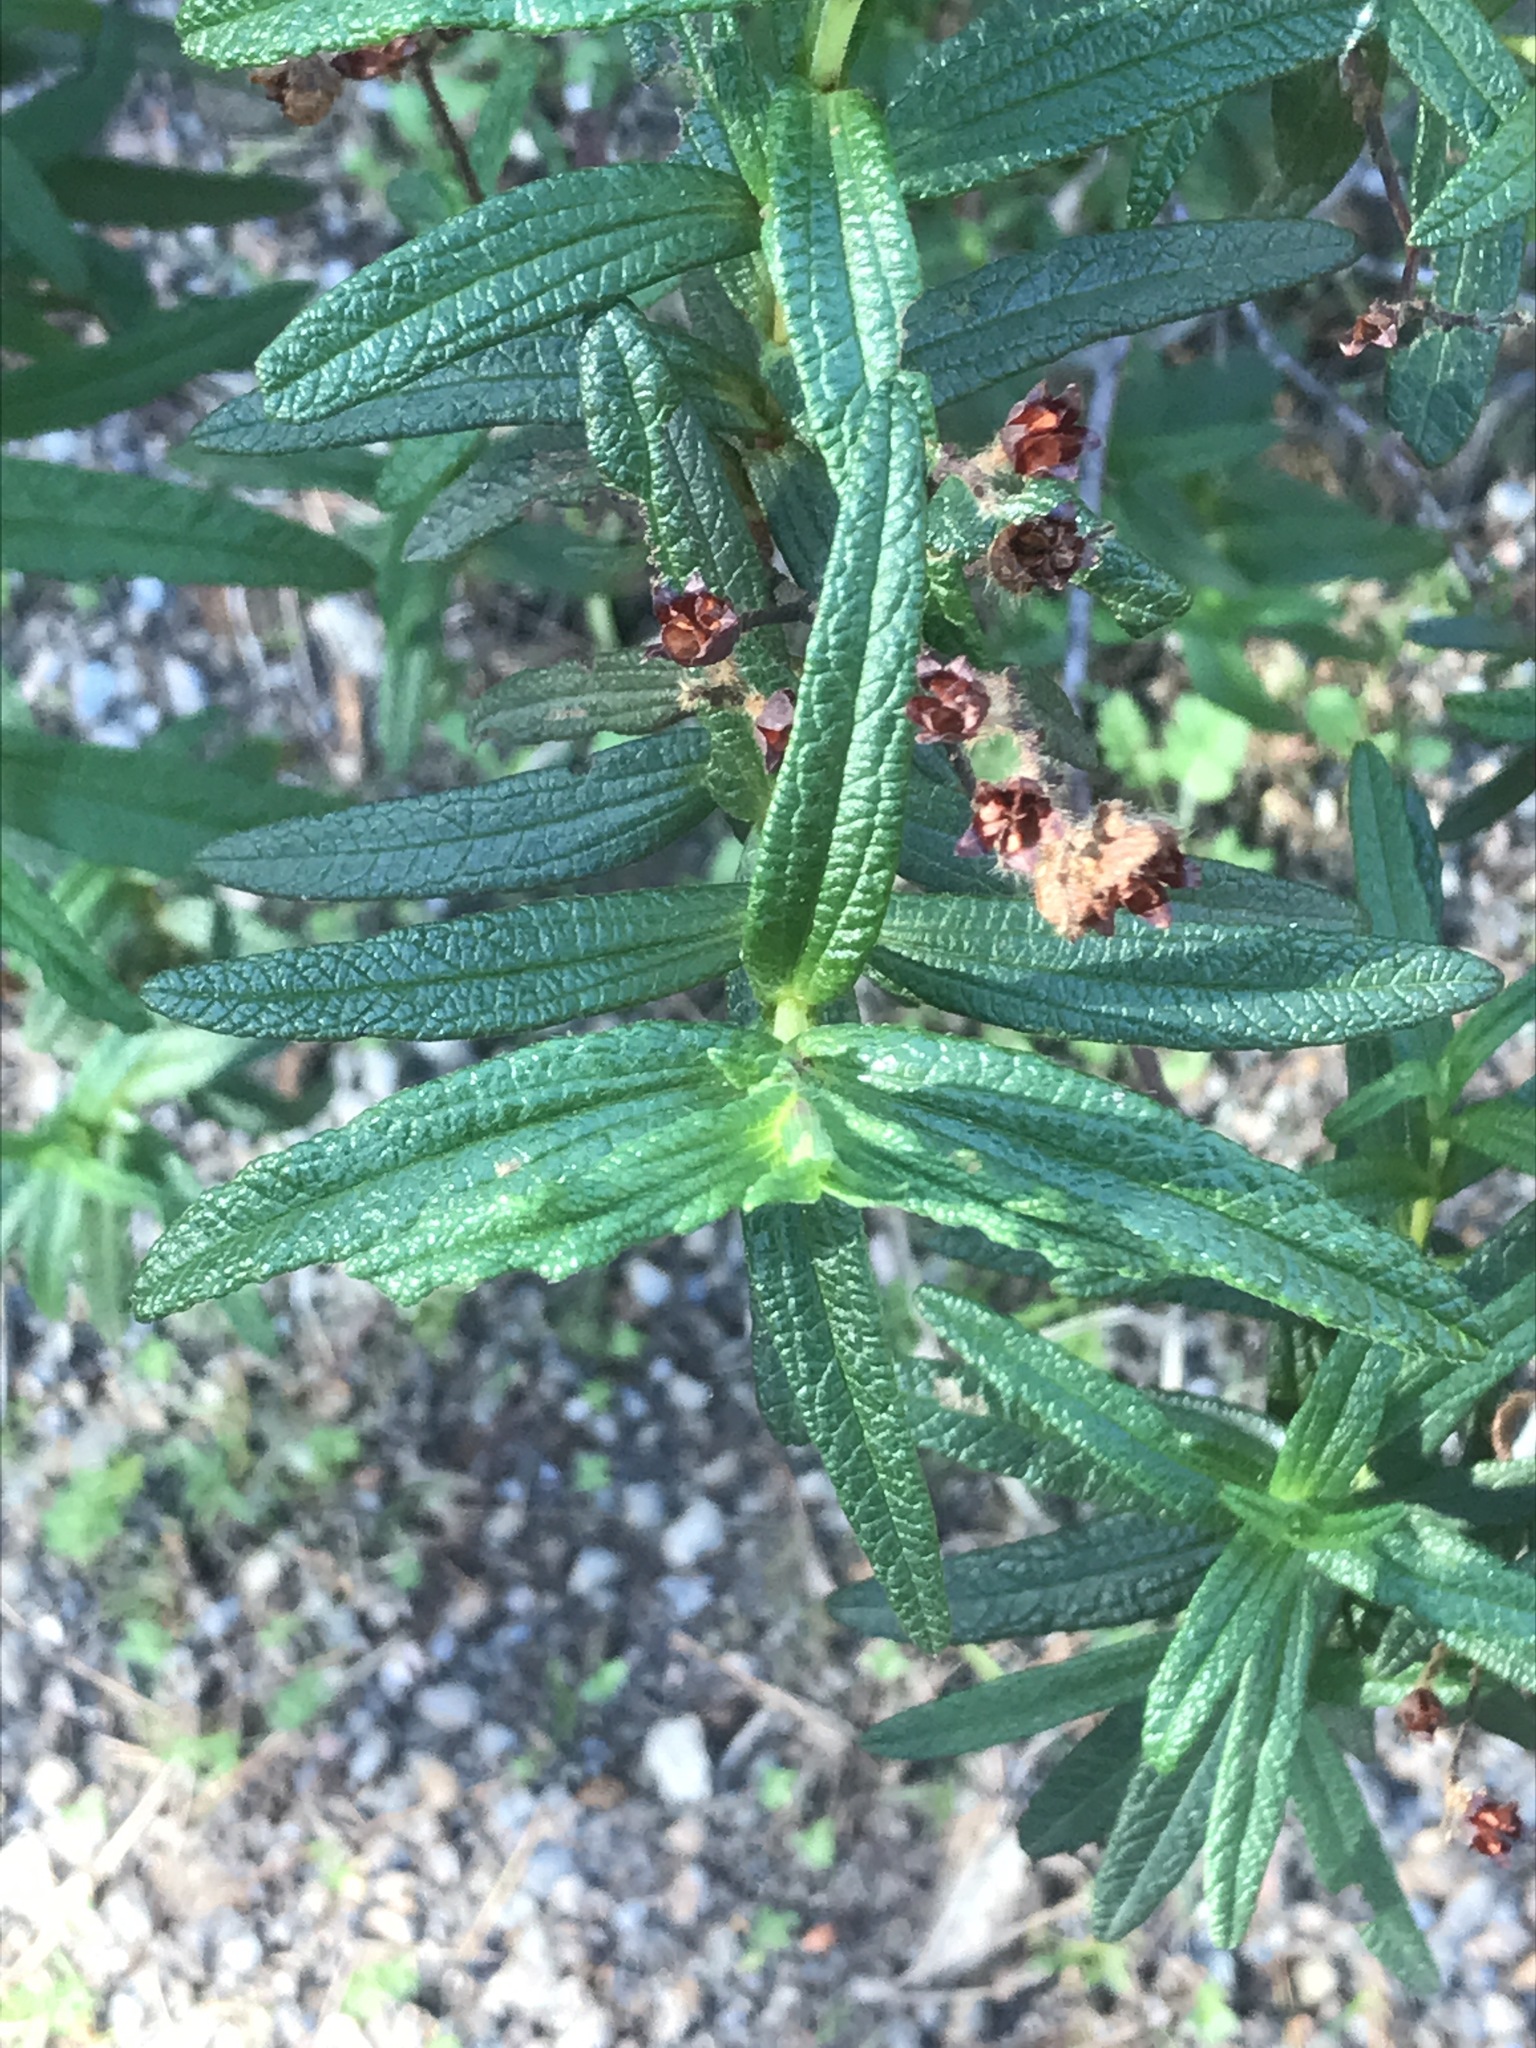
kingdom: Plantae
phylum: Tracheophyta
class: Magnoliopsida
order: Malvales
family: Cistaceae
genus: Cistus
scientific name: Cistus monspeliensis
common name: Montpelier cistus
